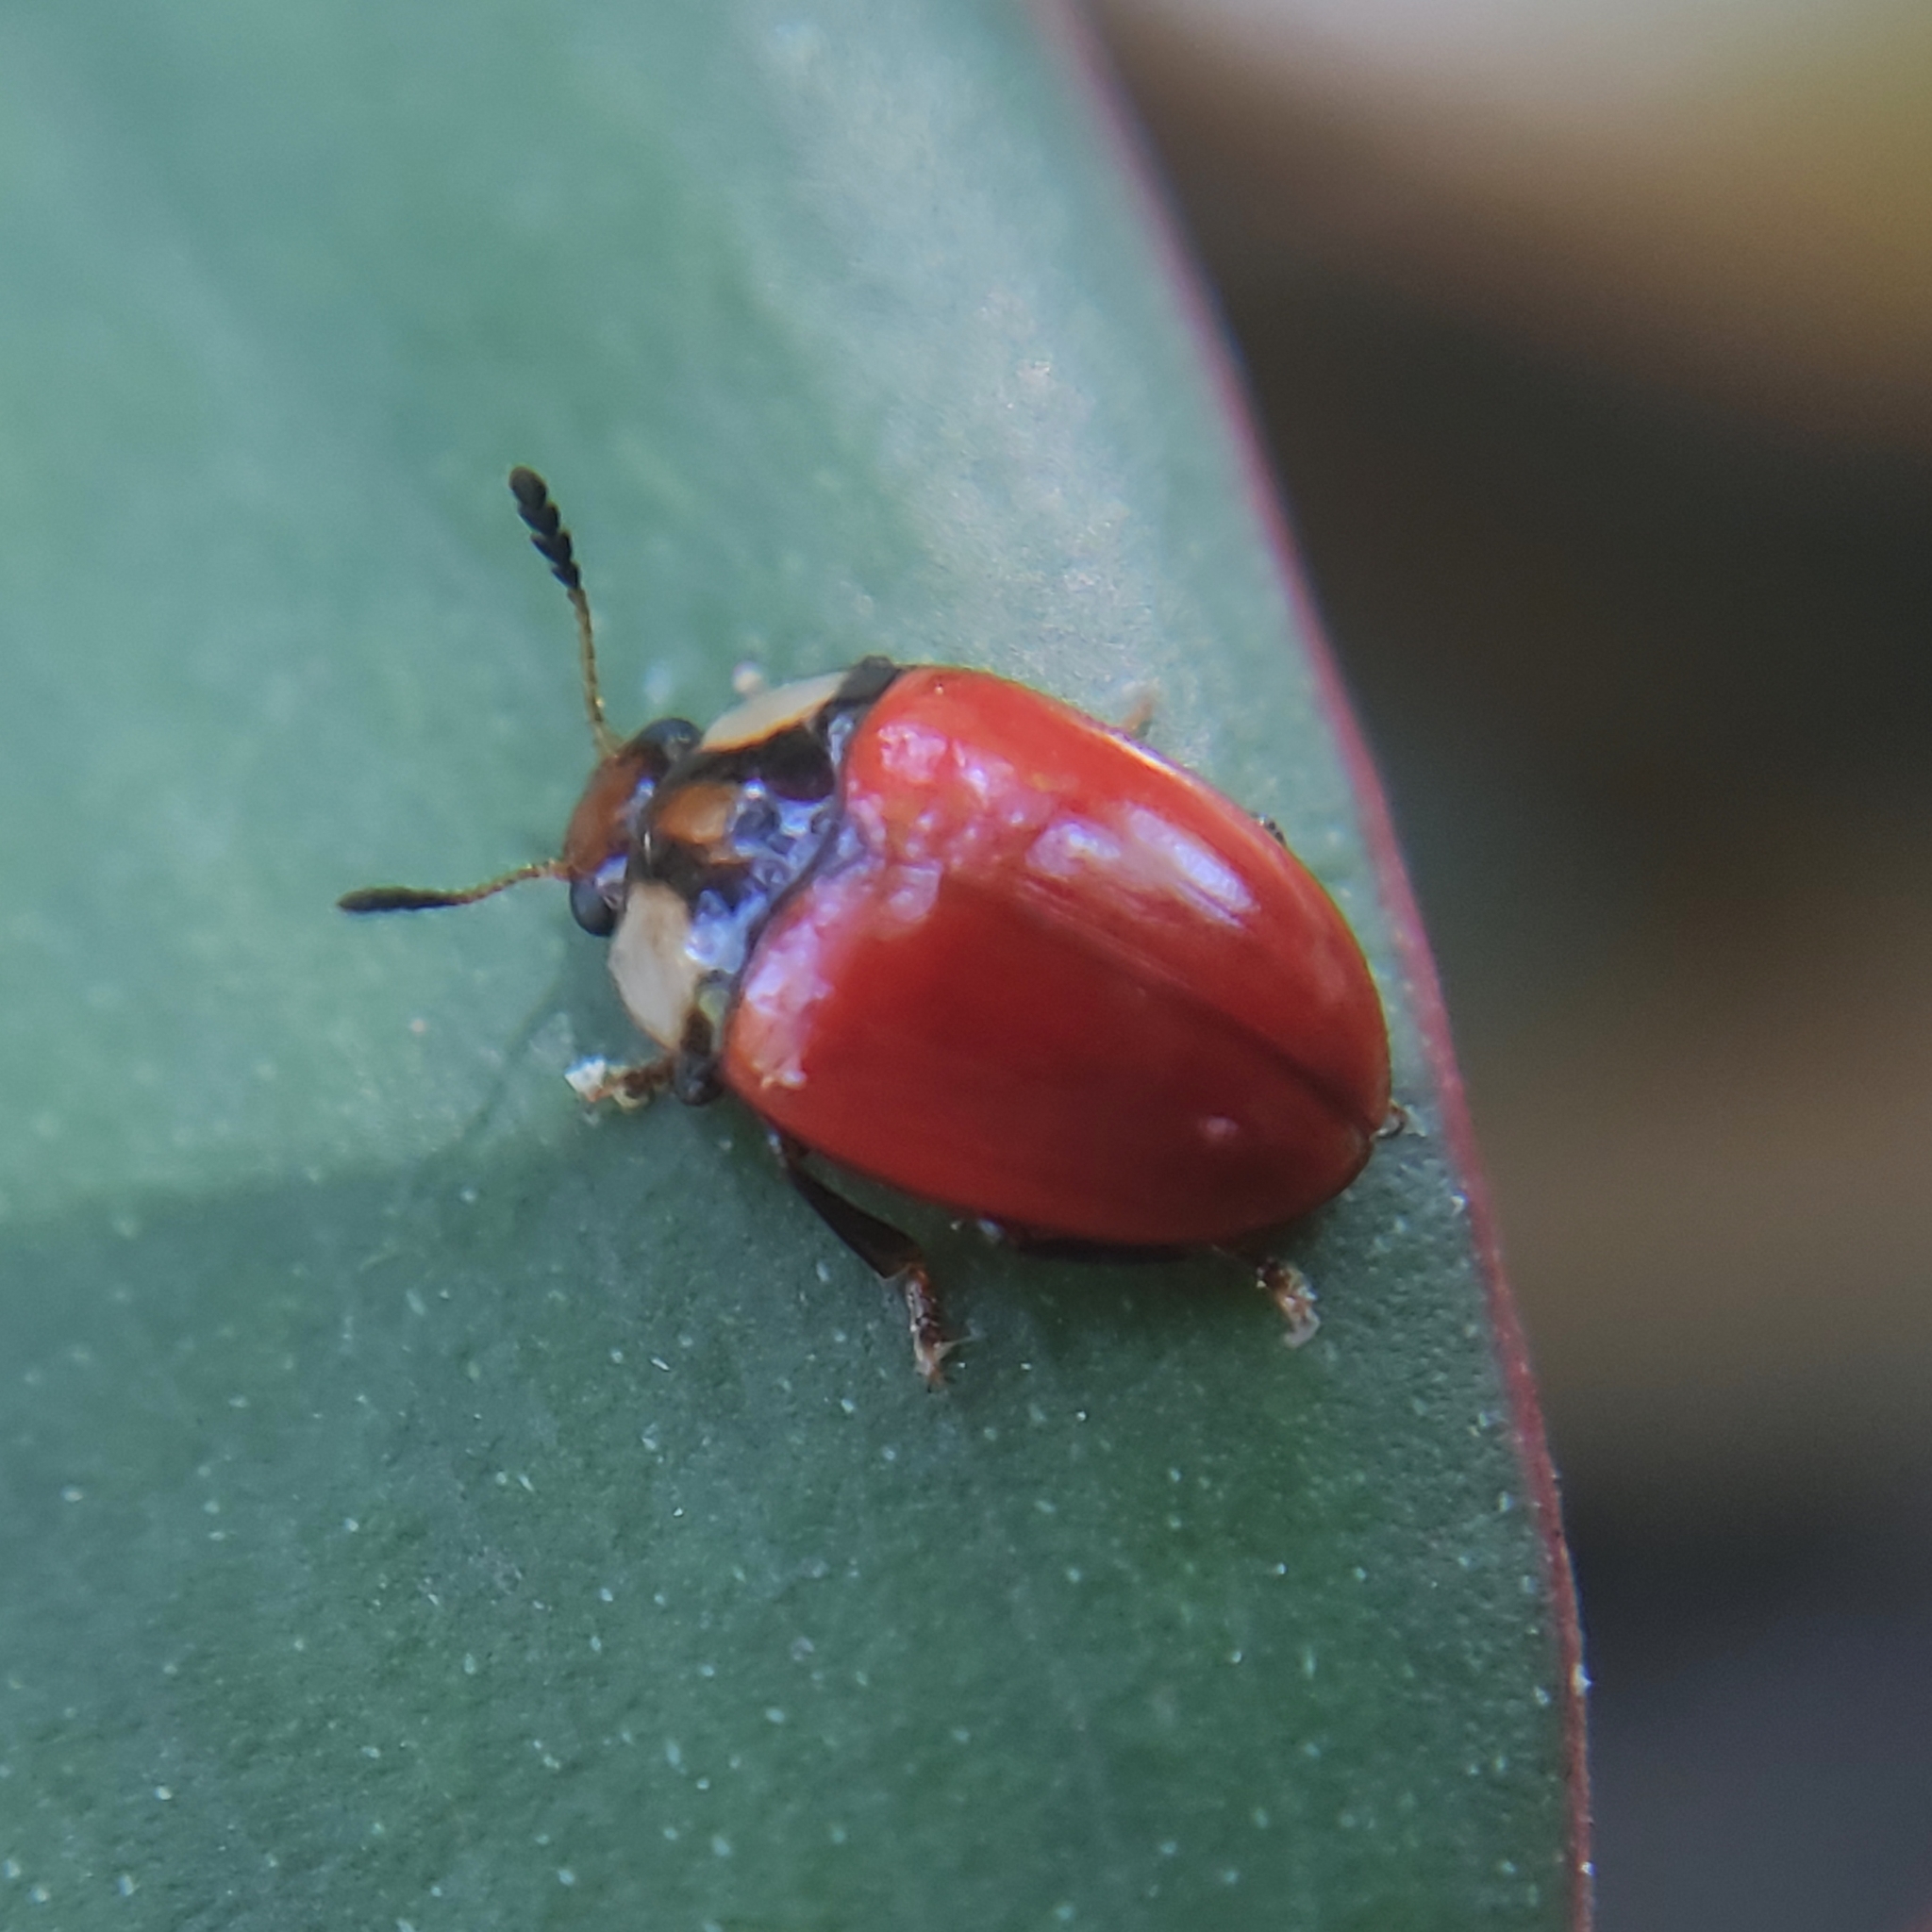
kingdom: Animalia
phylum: Arthropoda
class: Insecta
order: Coleoptera
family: Erotylidae
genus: Mycomystes
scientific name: Mycomystes apicalis
